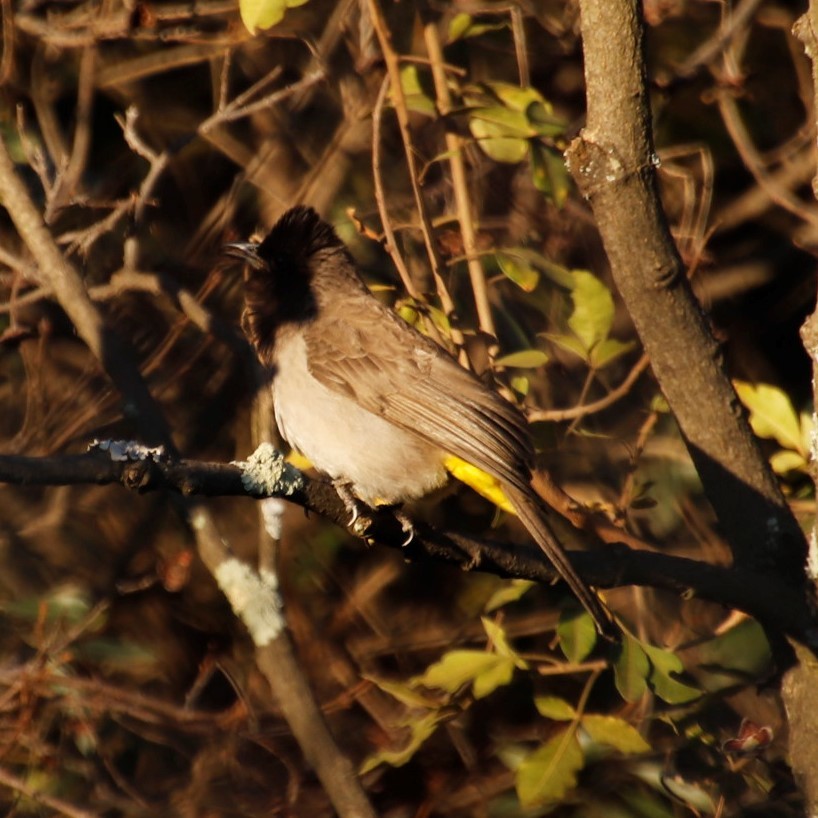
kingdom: Animalia
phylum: Chordata
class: Aves
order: Passeriformes
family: Pycnonotidae
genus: Pycnonotus
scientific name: Pycnonotus barbatus
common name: Common bulbul
